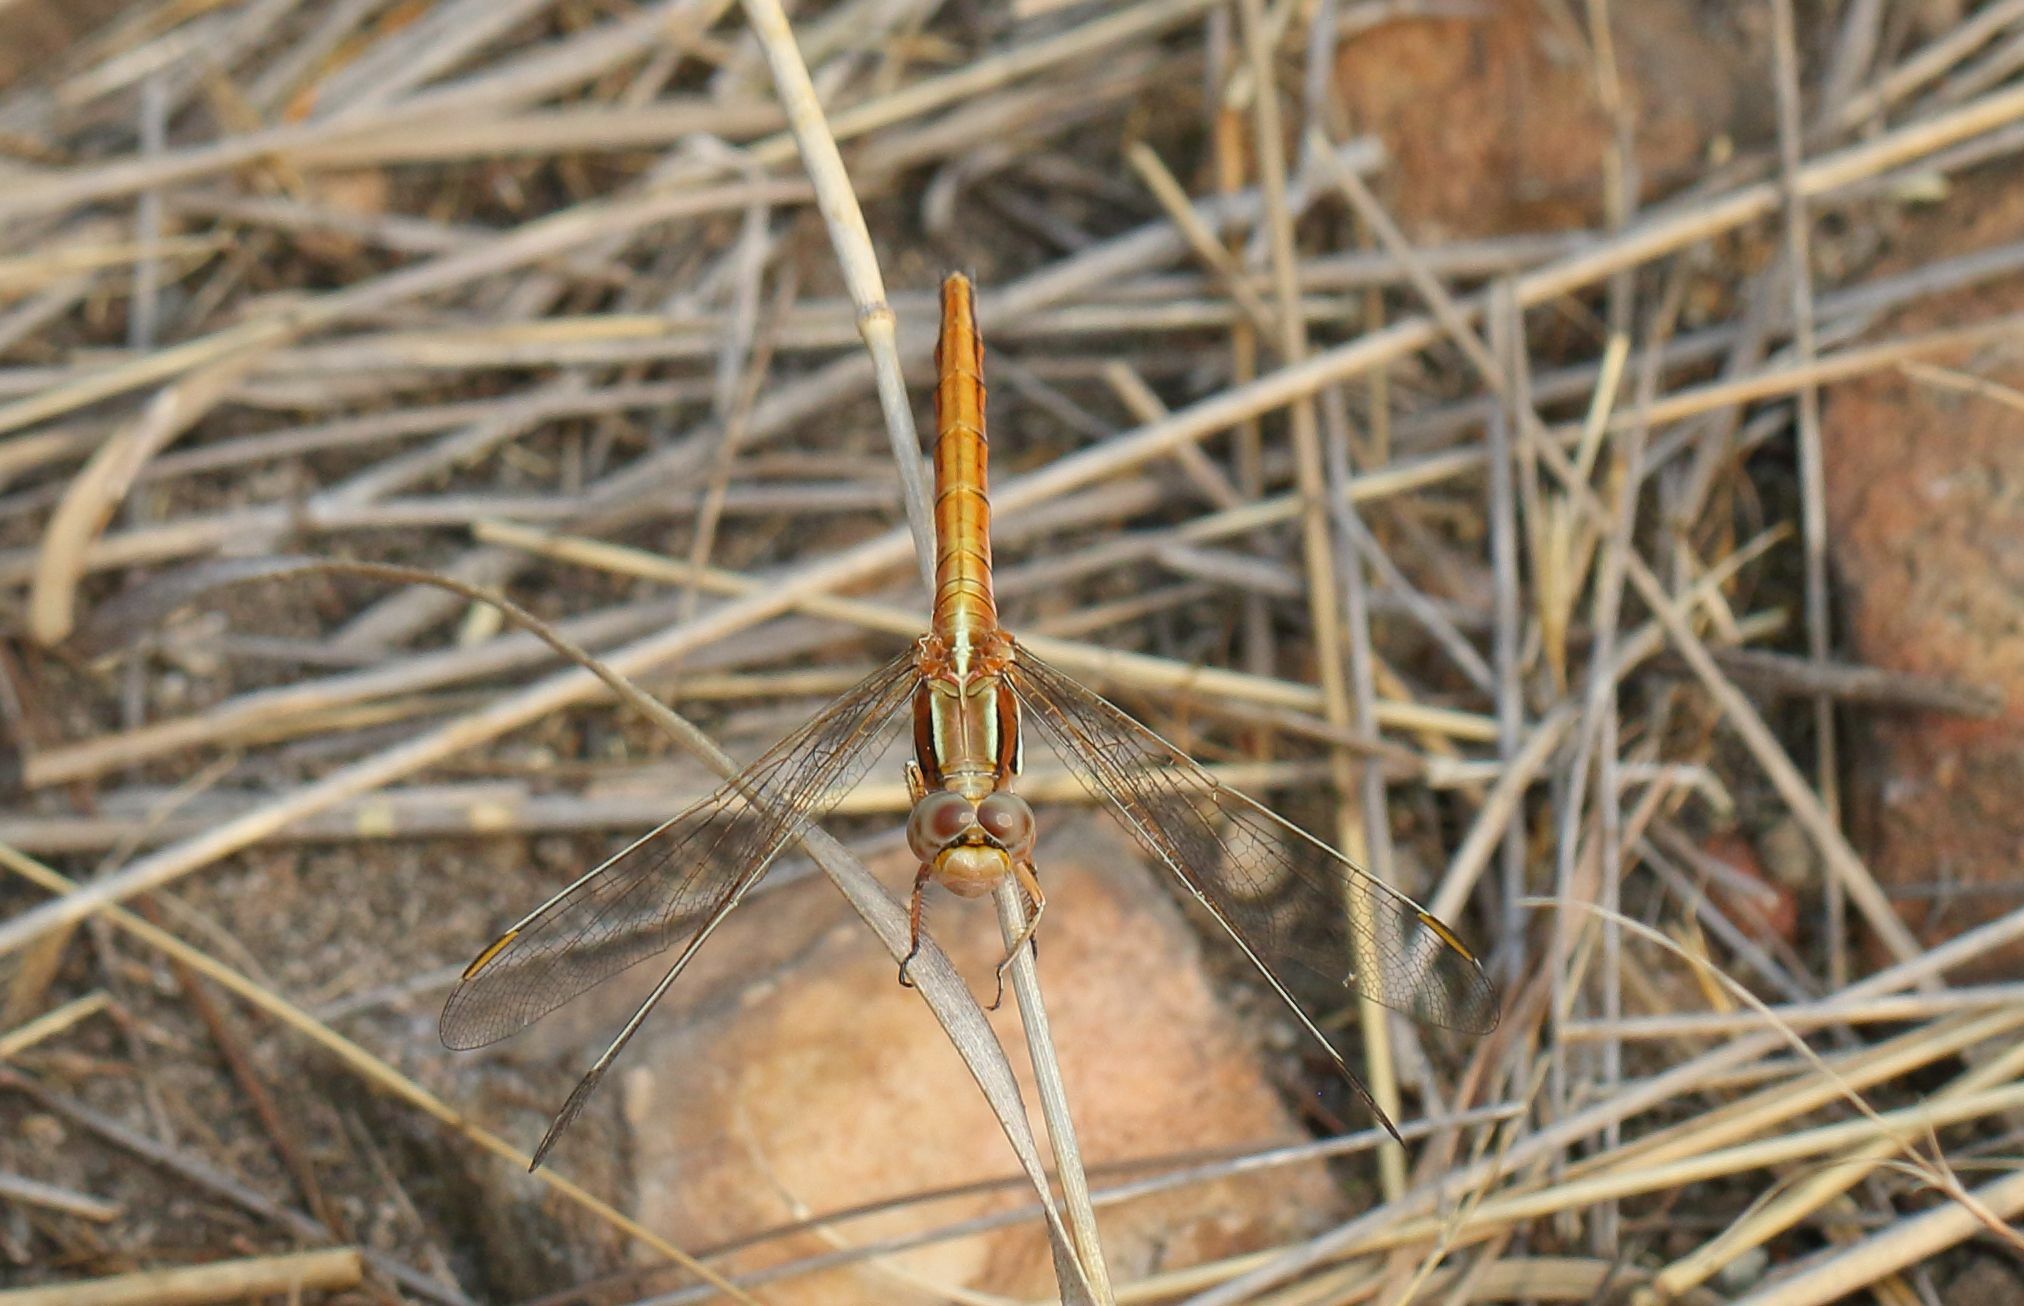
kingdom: Animalia
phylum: Arthropoda
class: Insecta
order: Odonata
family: Libellulidae
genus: Orthetrum
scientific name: Orthetrum caffrum
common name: Two-striped skimmer
